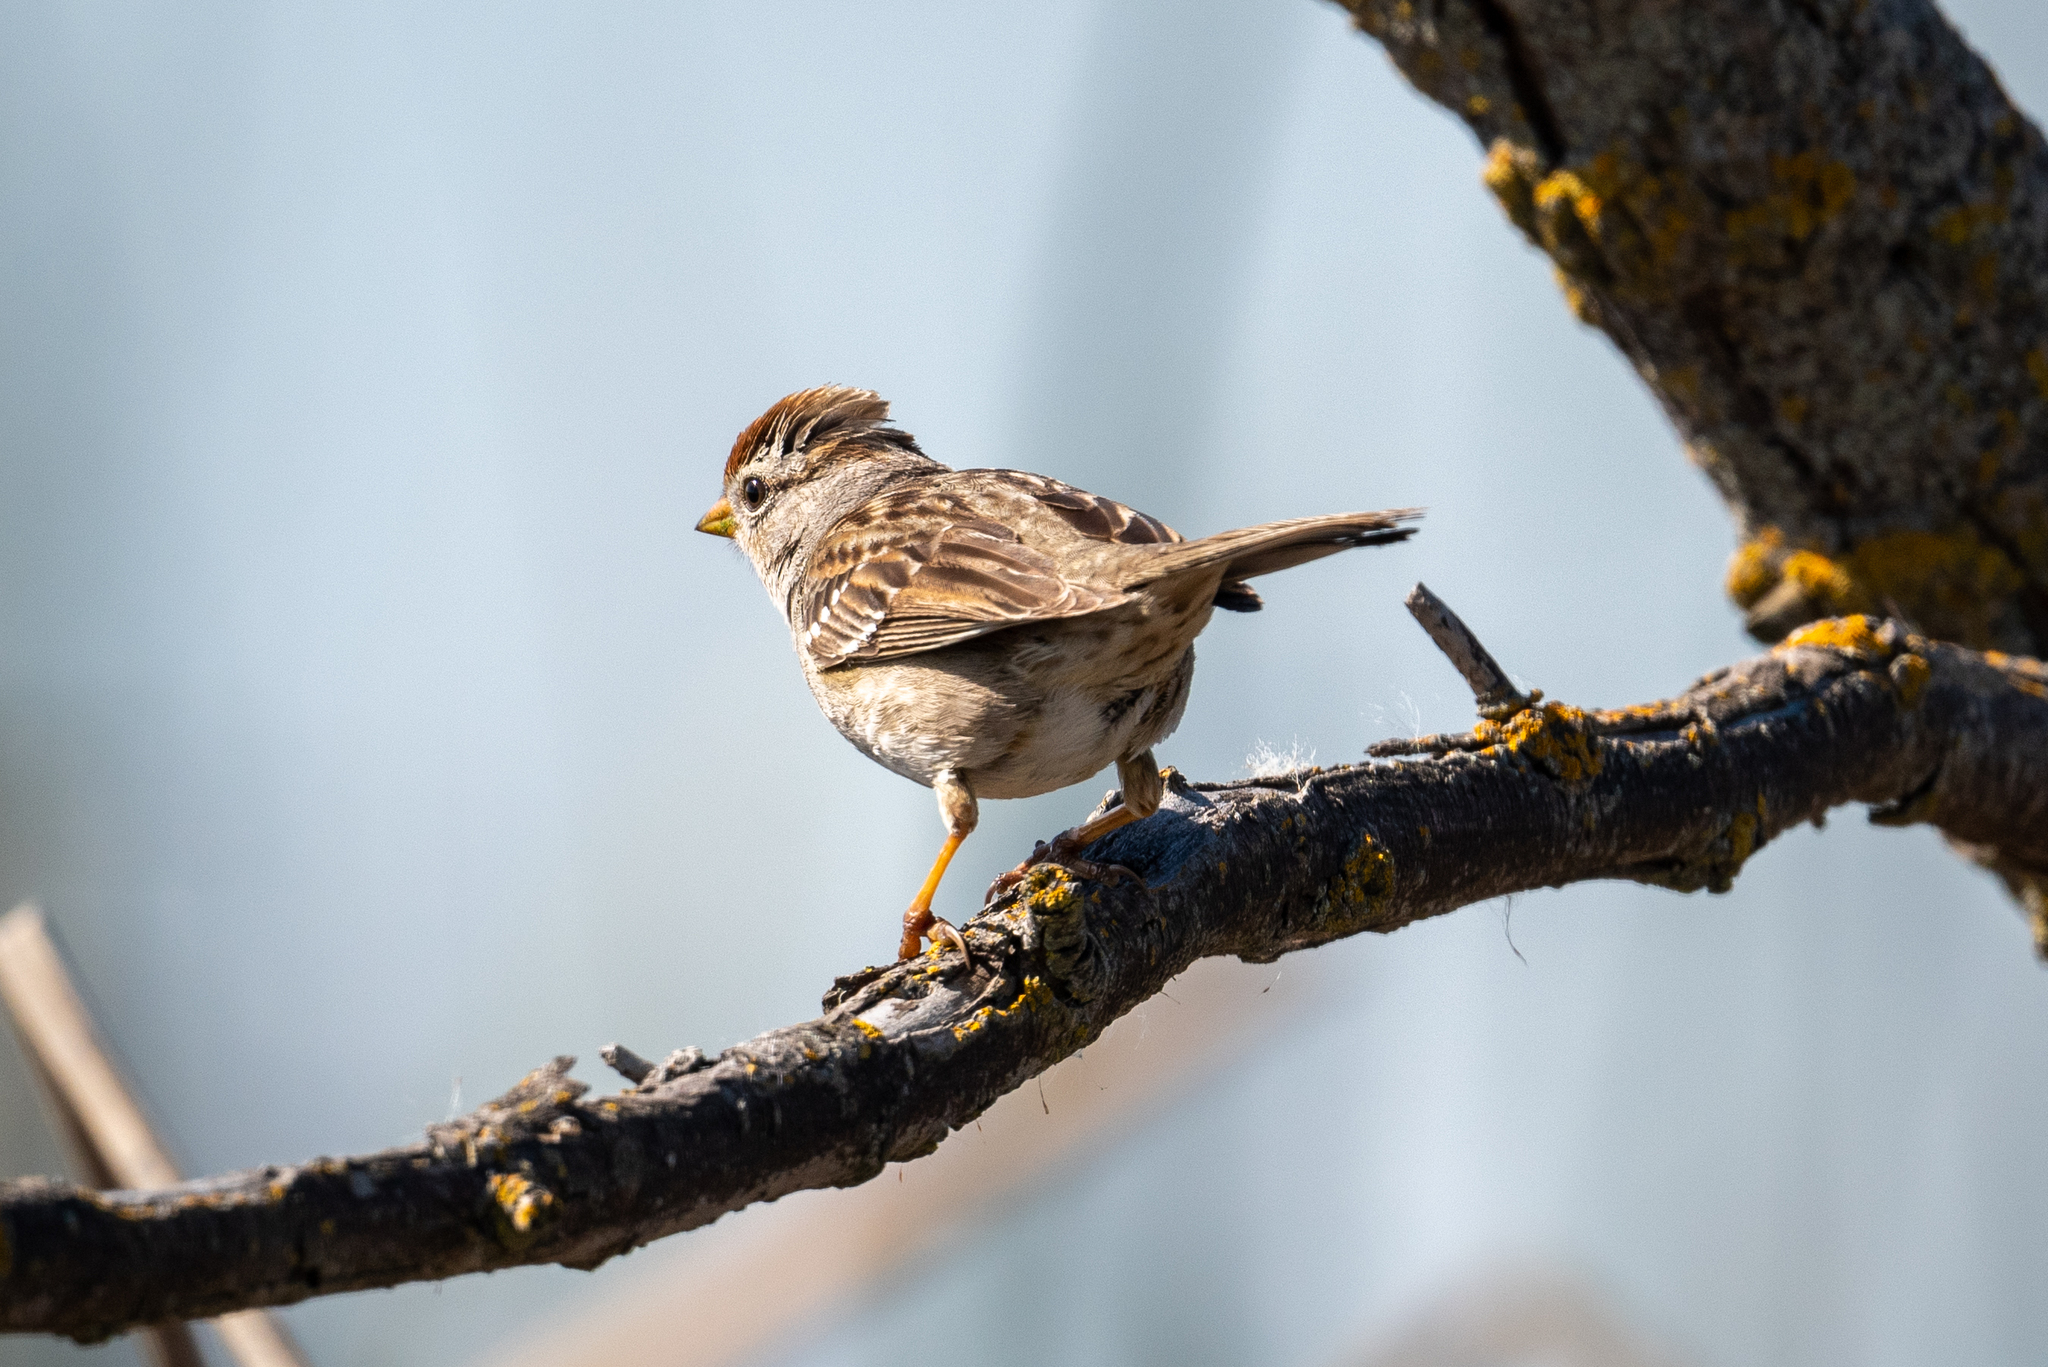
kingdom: Animalia
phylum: Chordata
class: Aves
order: Passeriformes
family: Passerellidae
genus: Zonotrichia
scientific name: Zonotrichia leucophrys
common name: White-crowned sparrow
